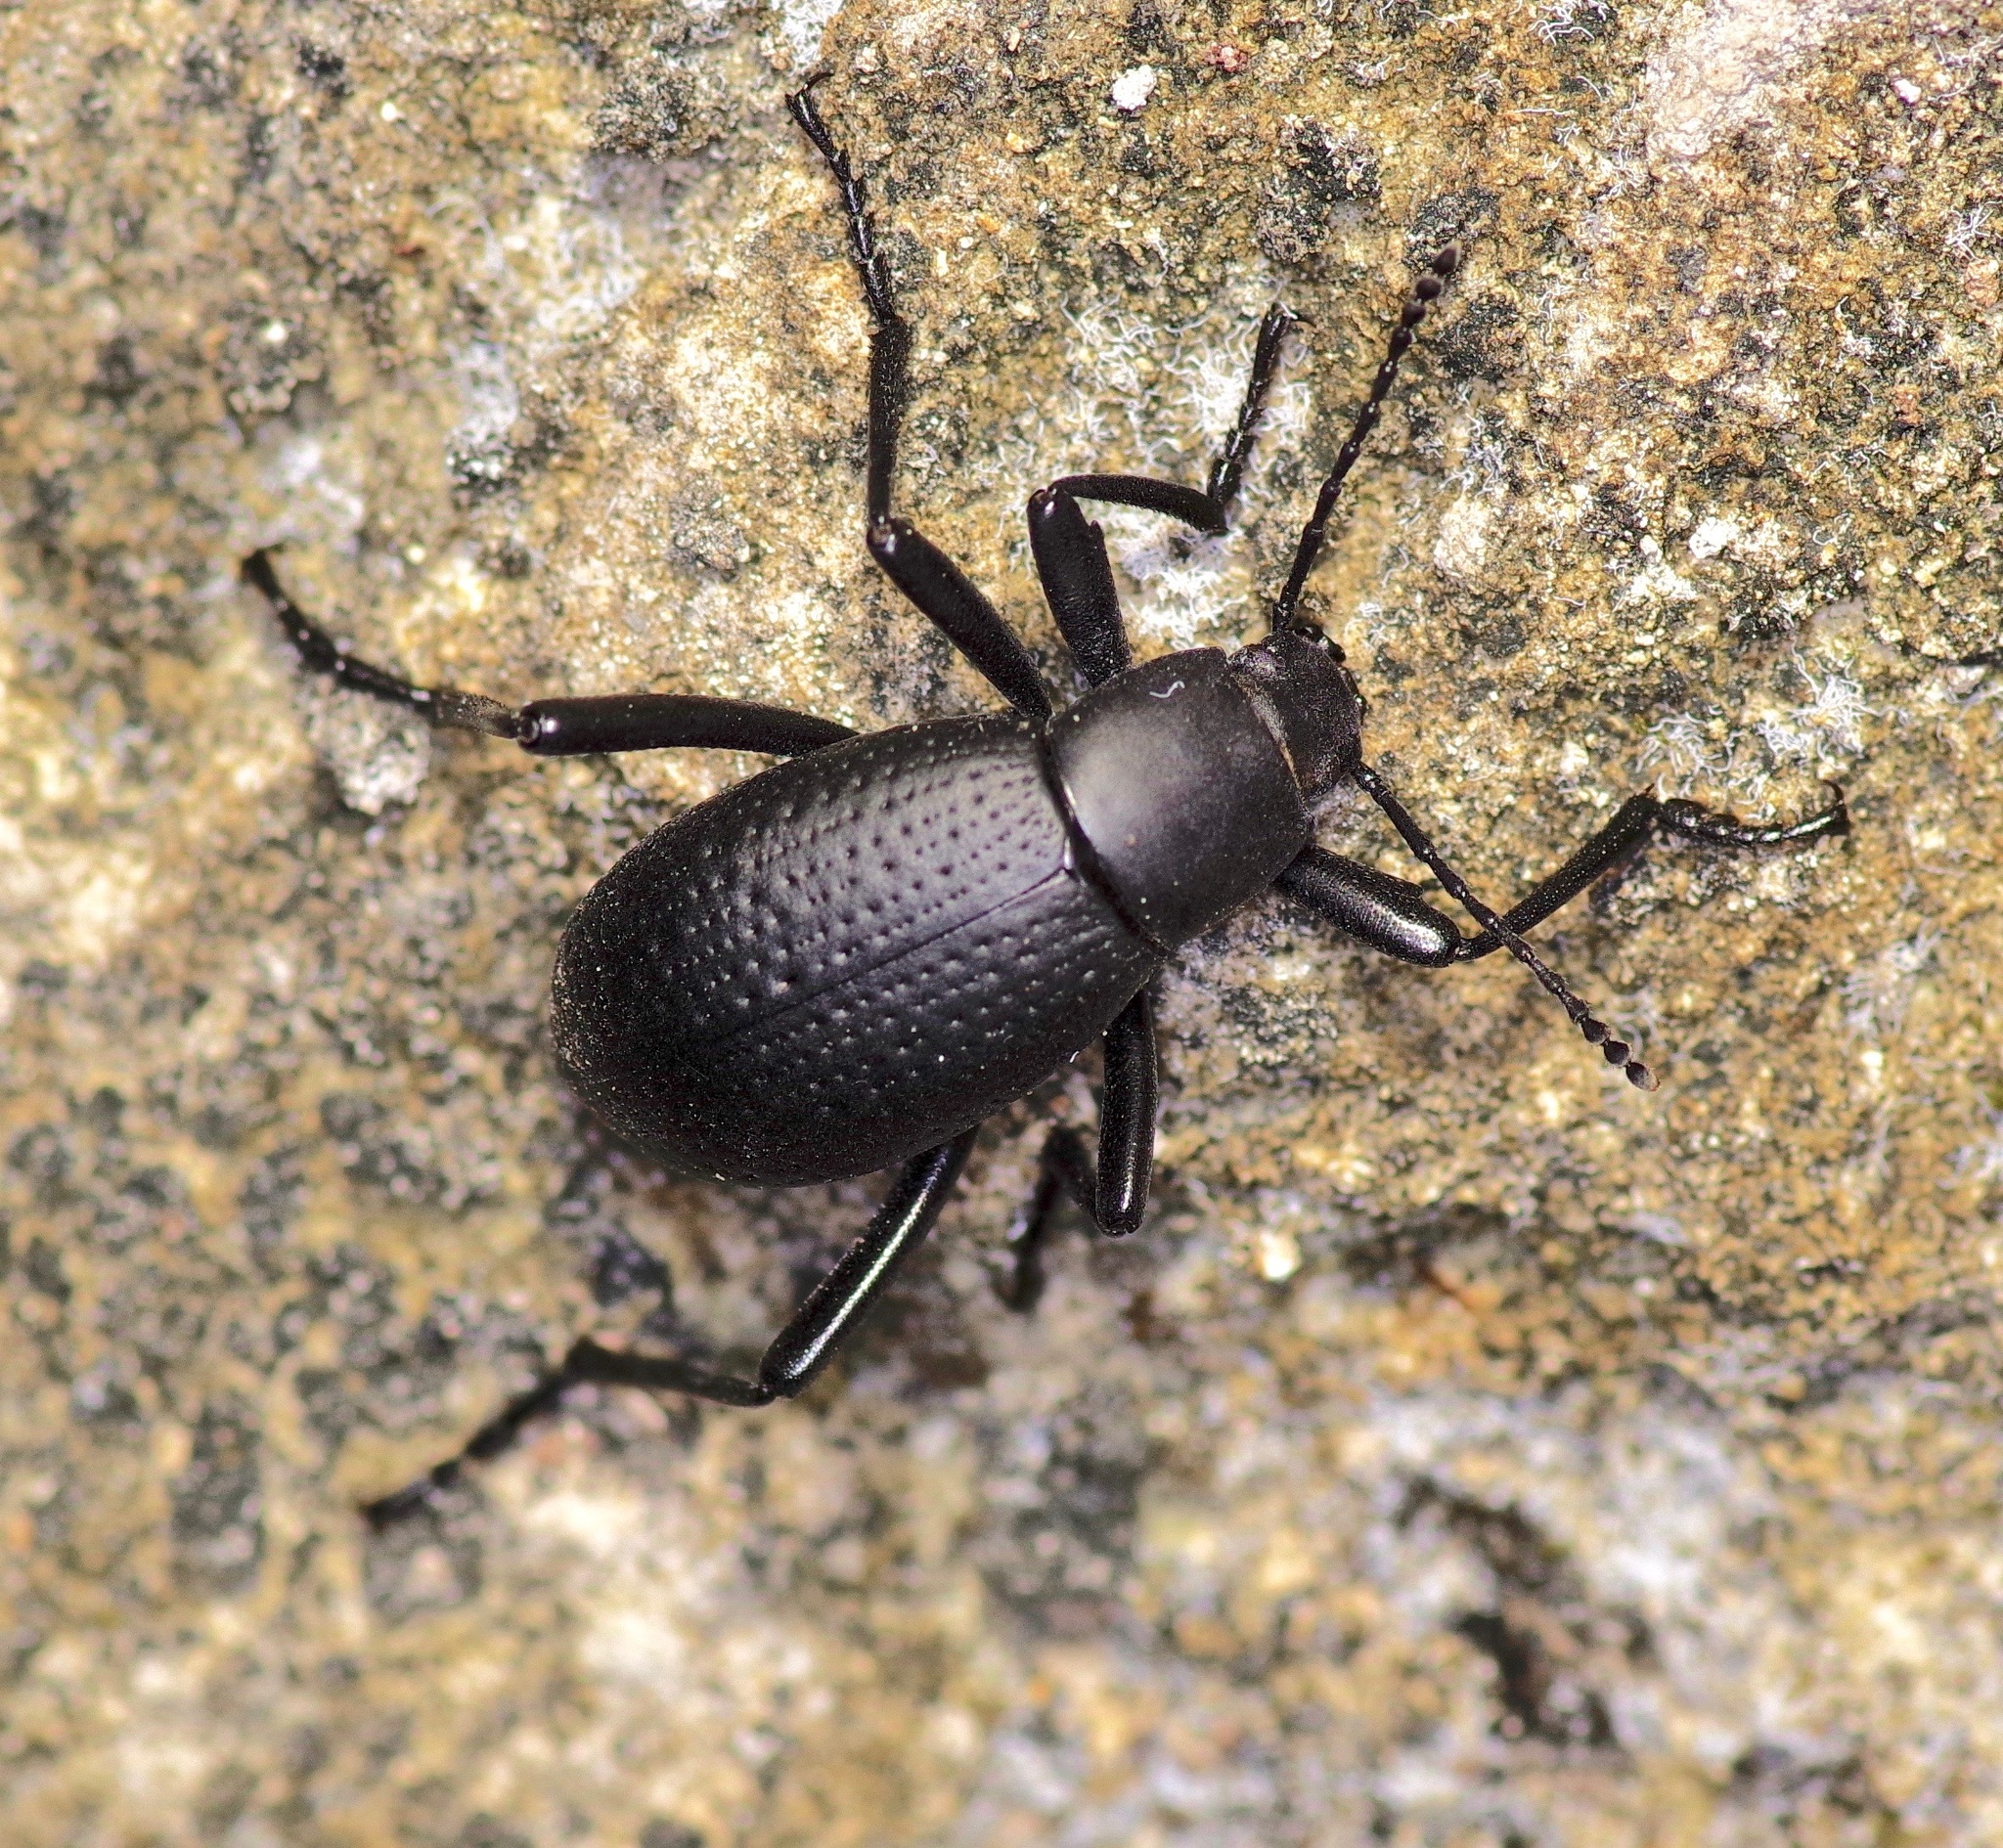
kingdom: Animalia
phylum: Arthropoda
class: Insecta
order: Coleoptera
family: Tenebrionidae
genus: Eleodes
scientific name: Eleodes goryi
